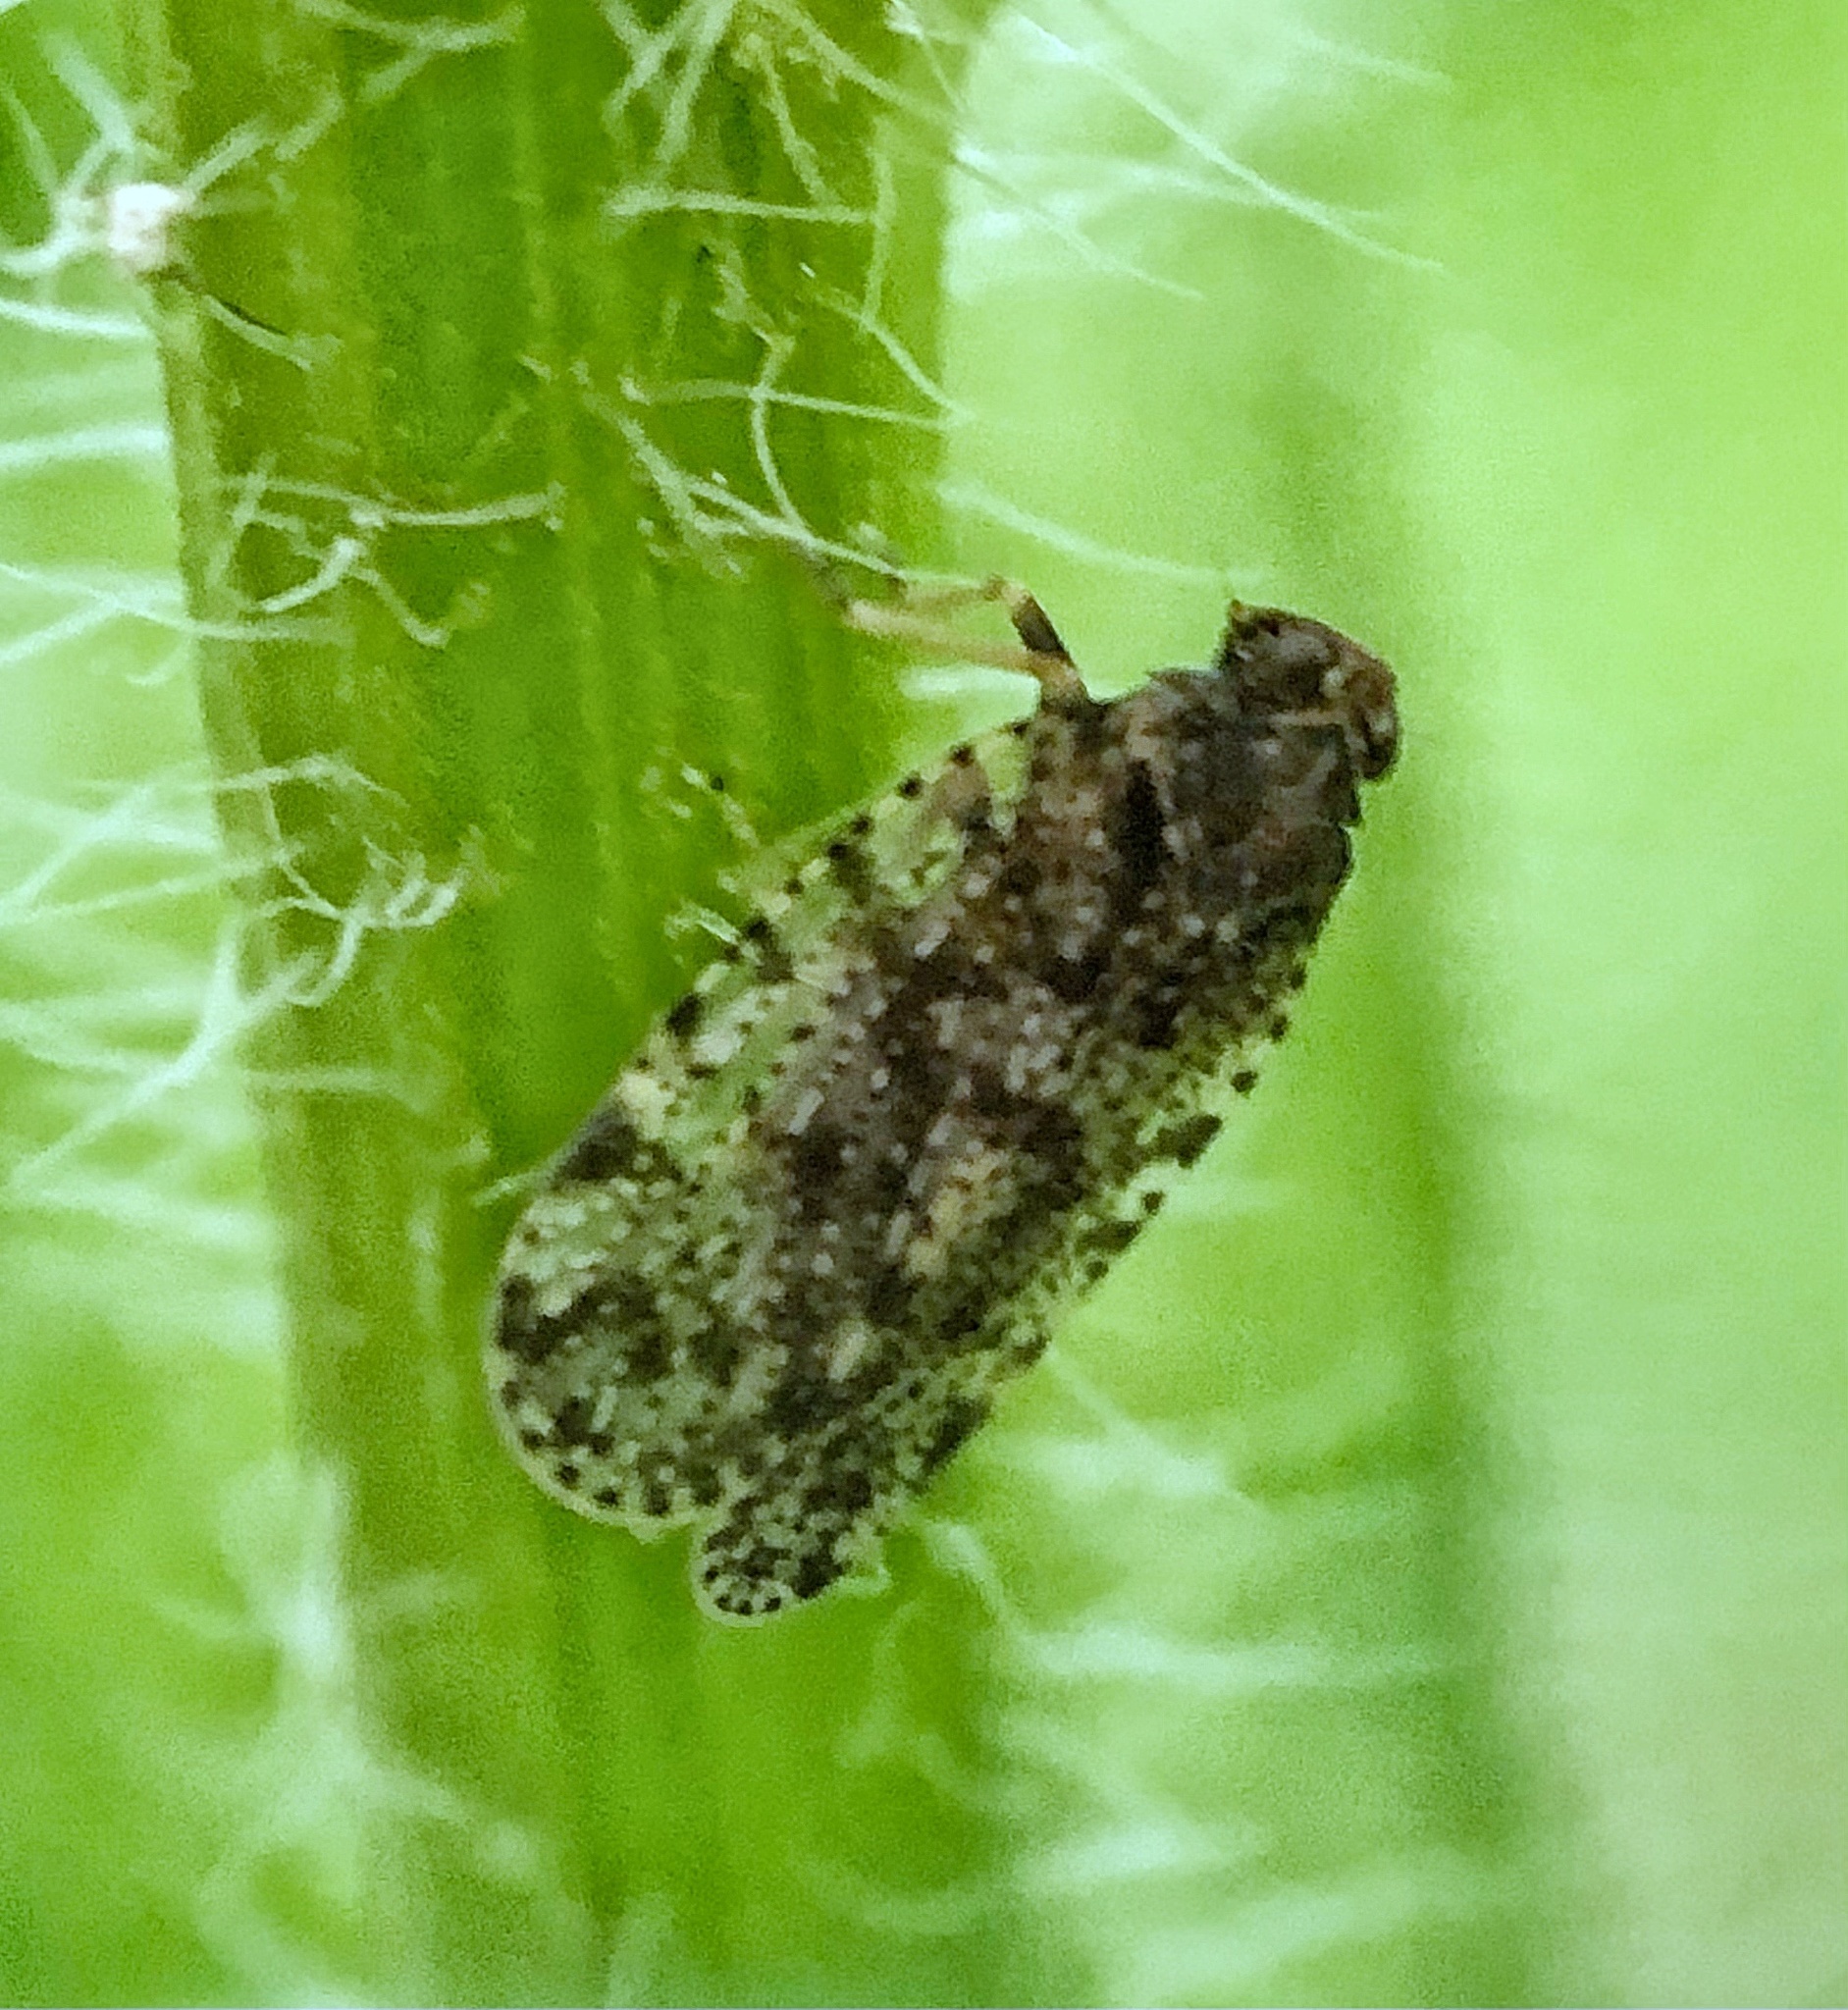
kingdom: Animalia
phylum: Arthropoda
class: Insecta
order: Hemiptera
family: Cixiidae
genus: Cixius
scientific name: Cixius pini
